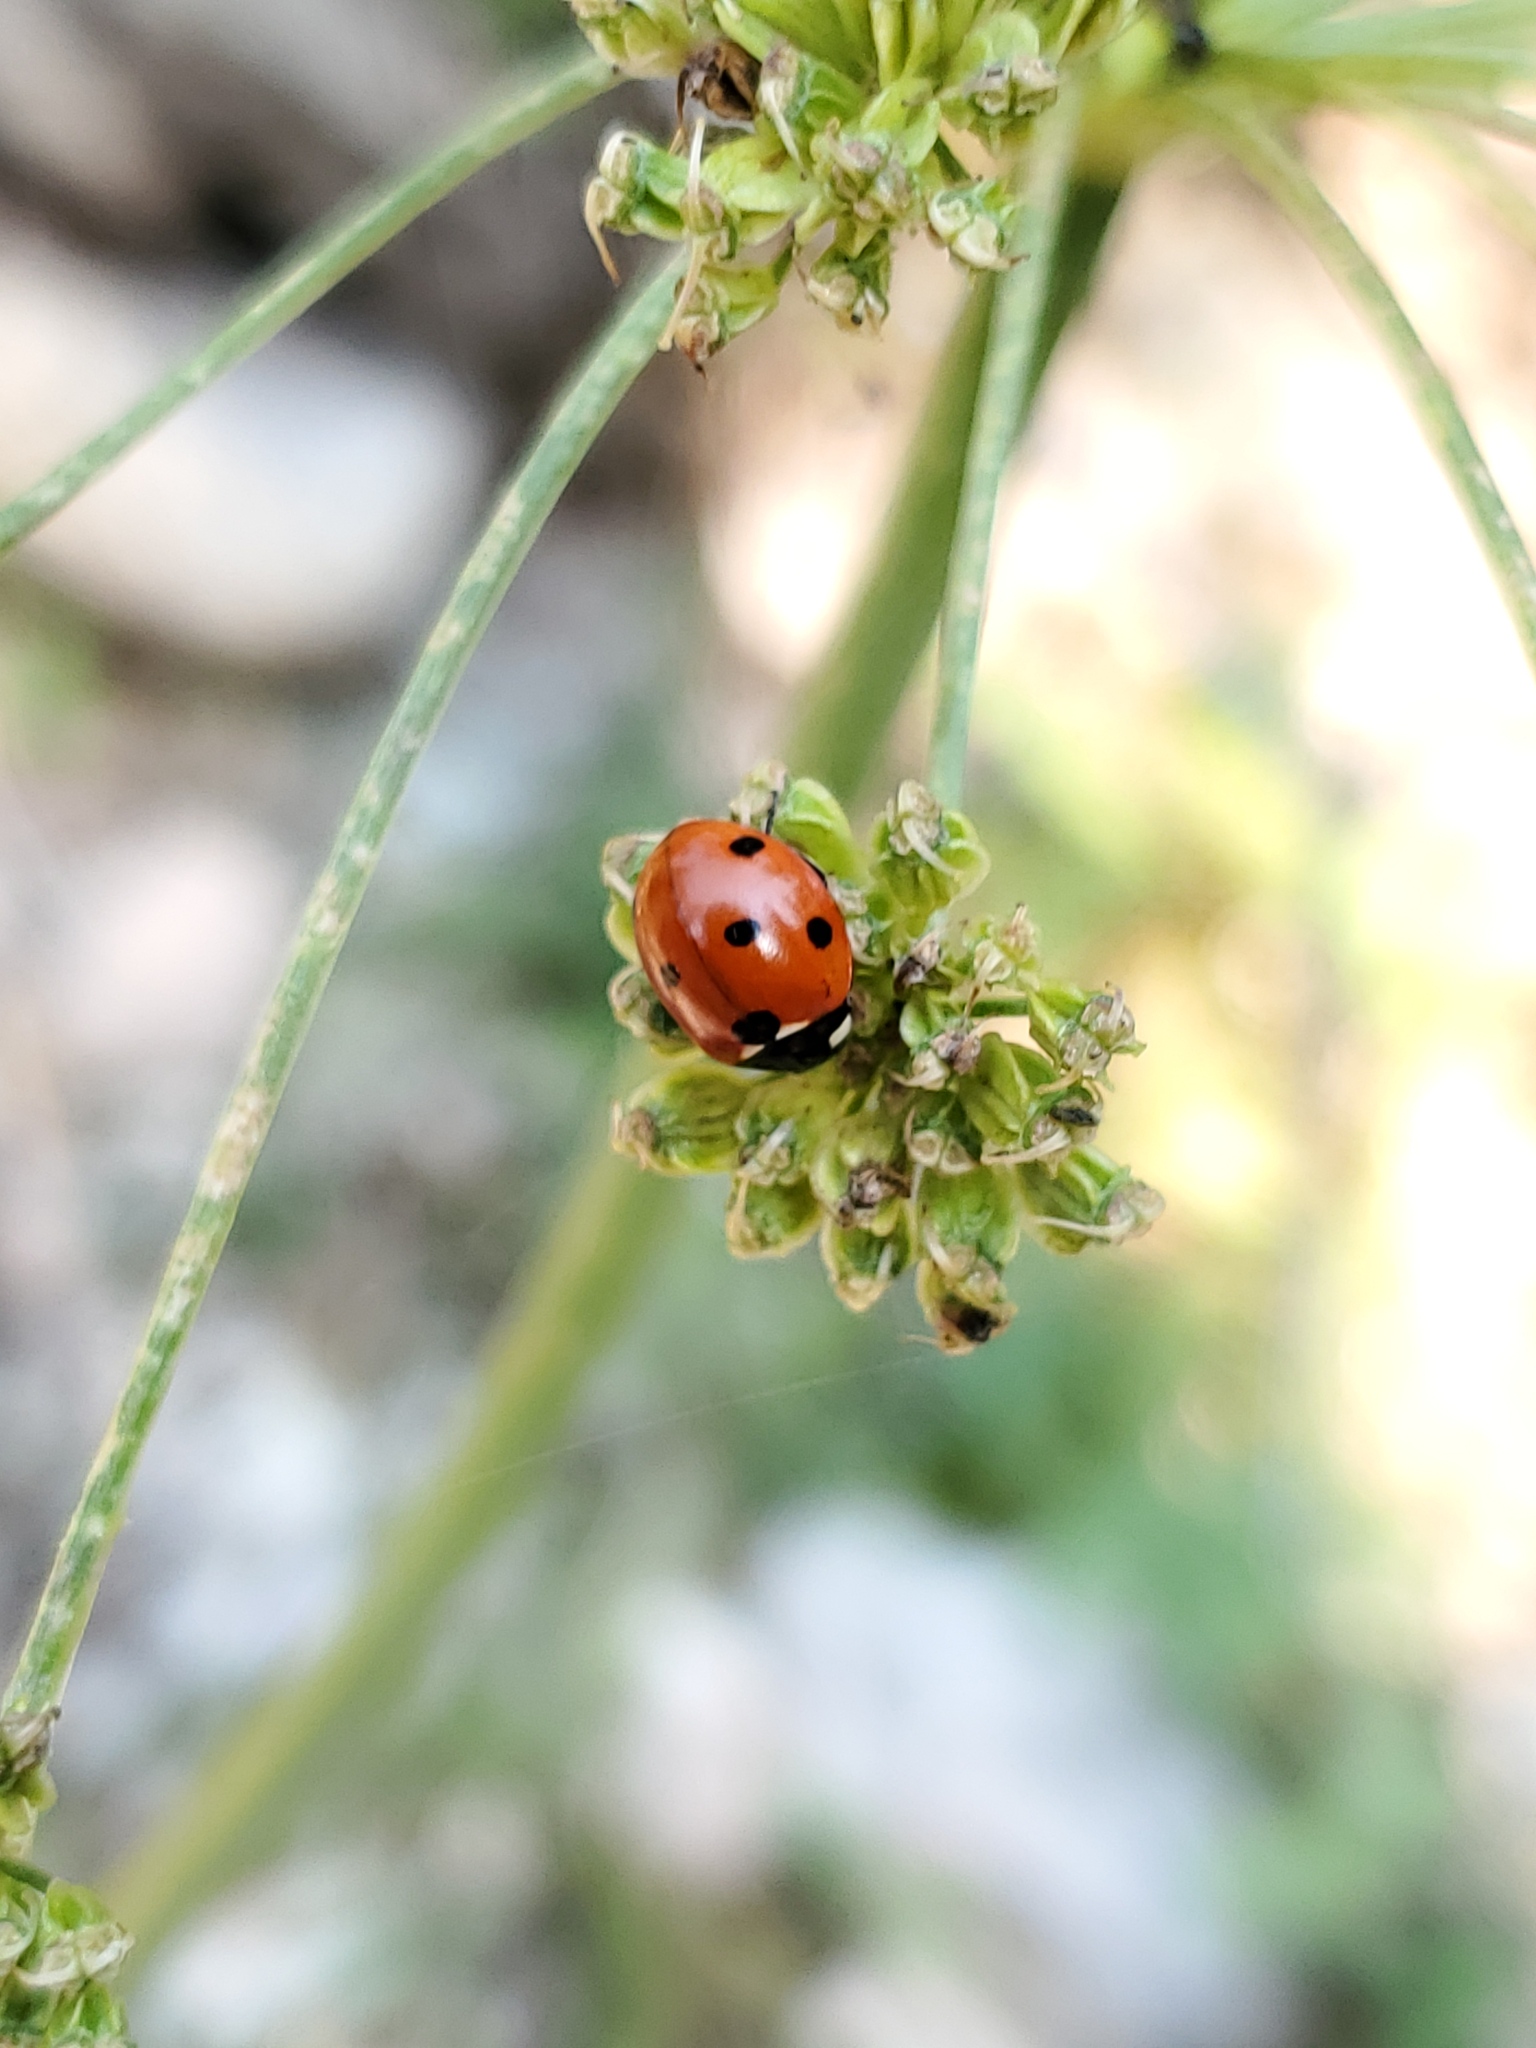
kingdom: Animalia
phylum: Arthropoda
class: Insecta
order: Coleoptera
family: Coccinellidae
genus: Coccinella
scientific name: Coccinella septempunctata
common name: Sevenspotted lady beetle
